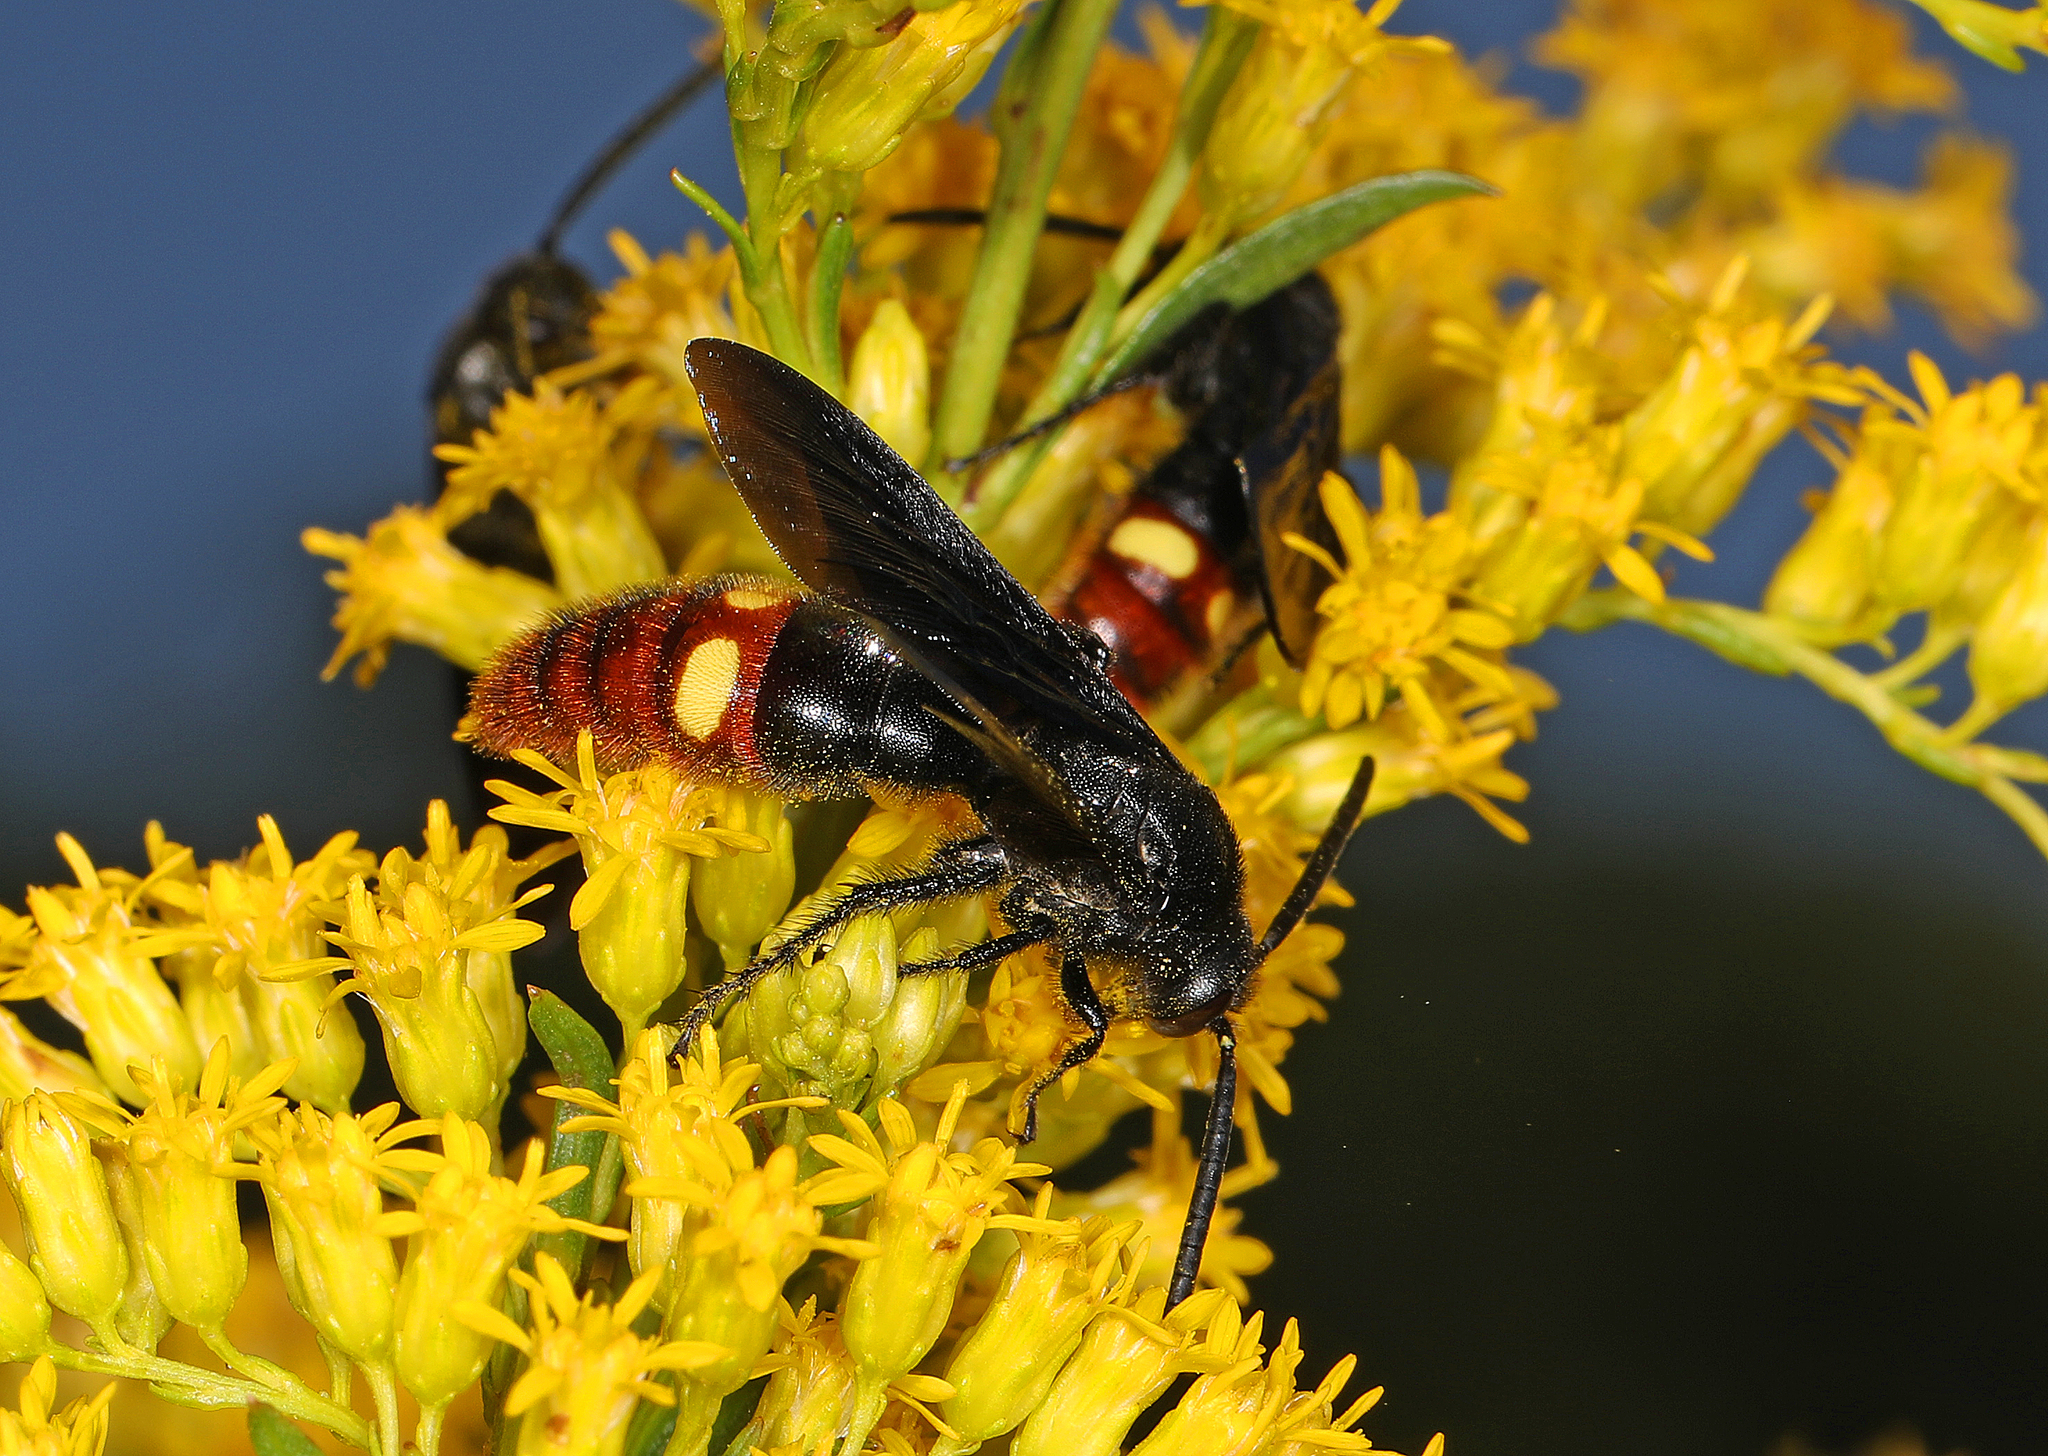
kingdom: Animalia
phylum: Arthropoda
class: Insecta
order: Hymenoptera
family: Scoliidae
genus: Scolia
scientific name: Scolia dubia
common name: Blue-winged scoliid wasp
